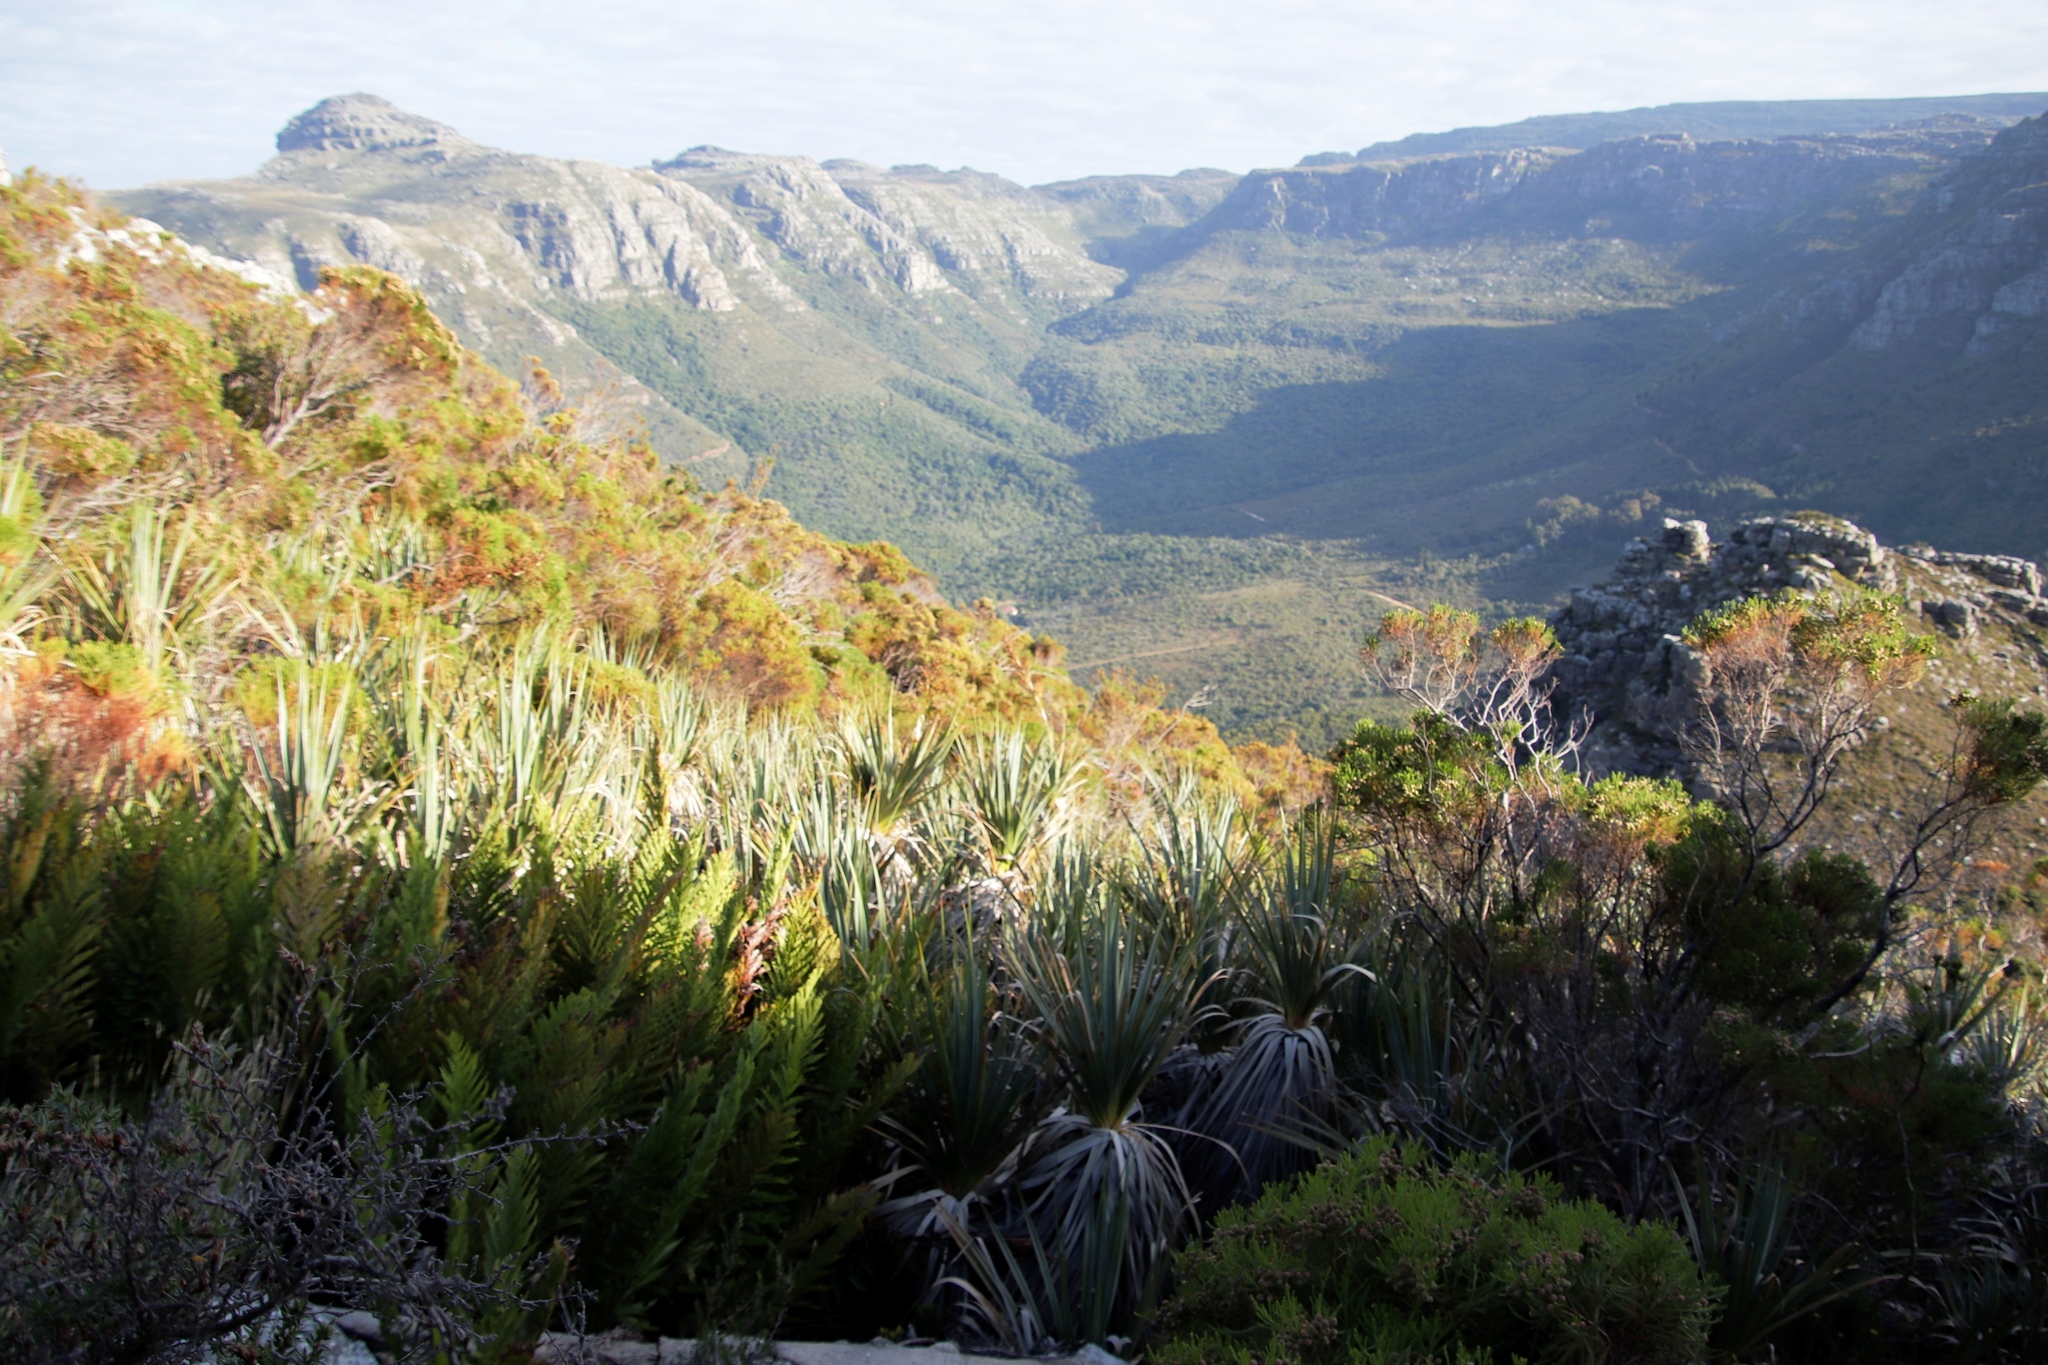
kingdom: Plantae
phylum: Tracheophyta
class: Magnoliopsida
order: Bruniales
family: Bruniaceae
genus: Berzelia
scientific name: Berzelia lanuginosa
